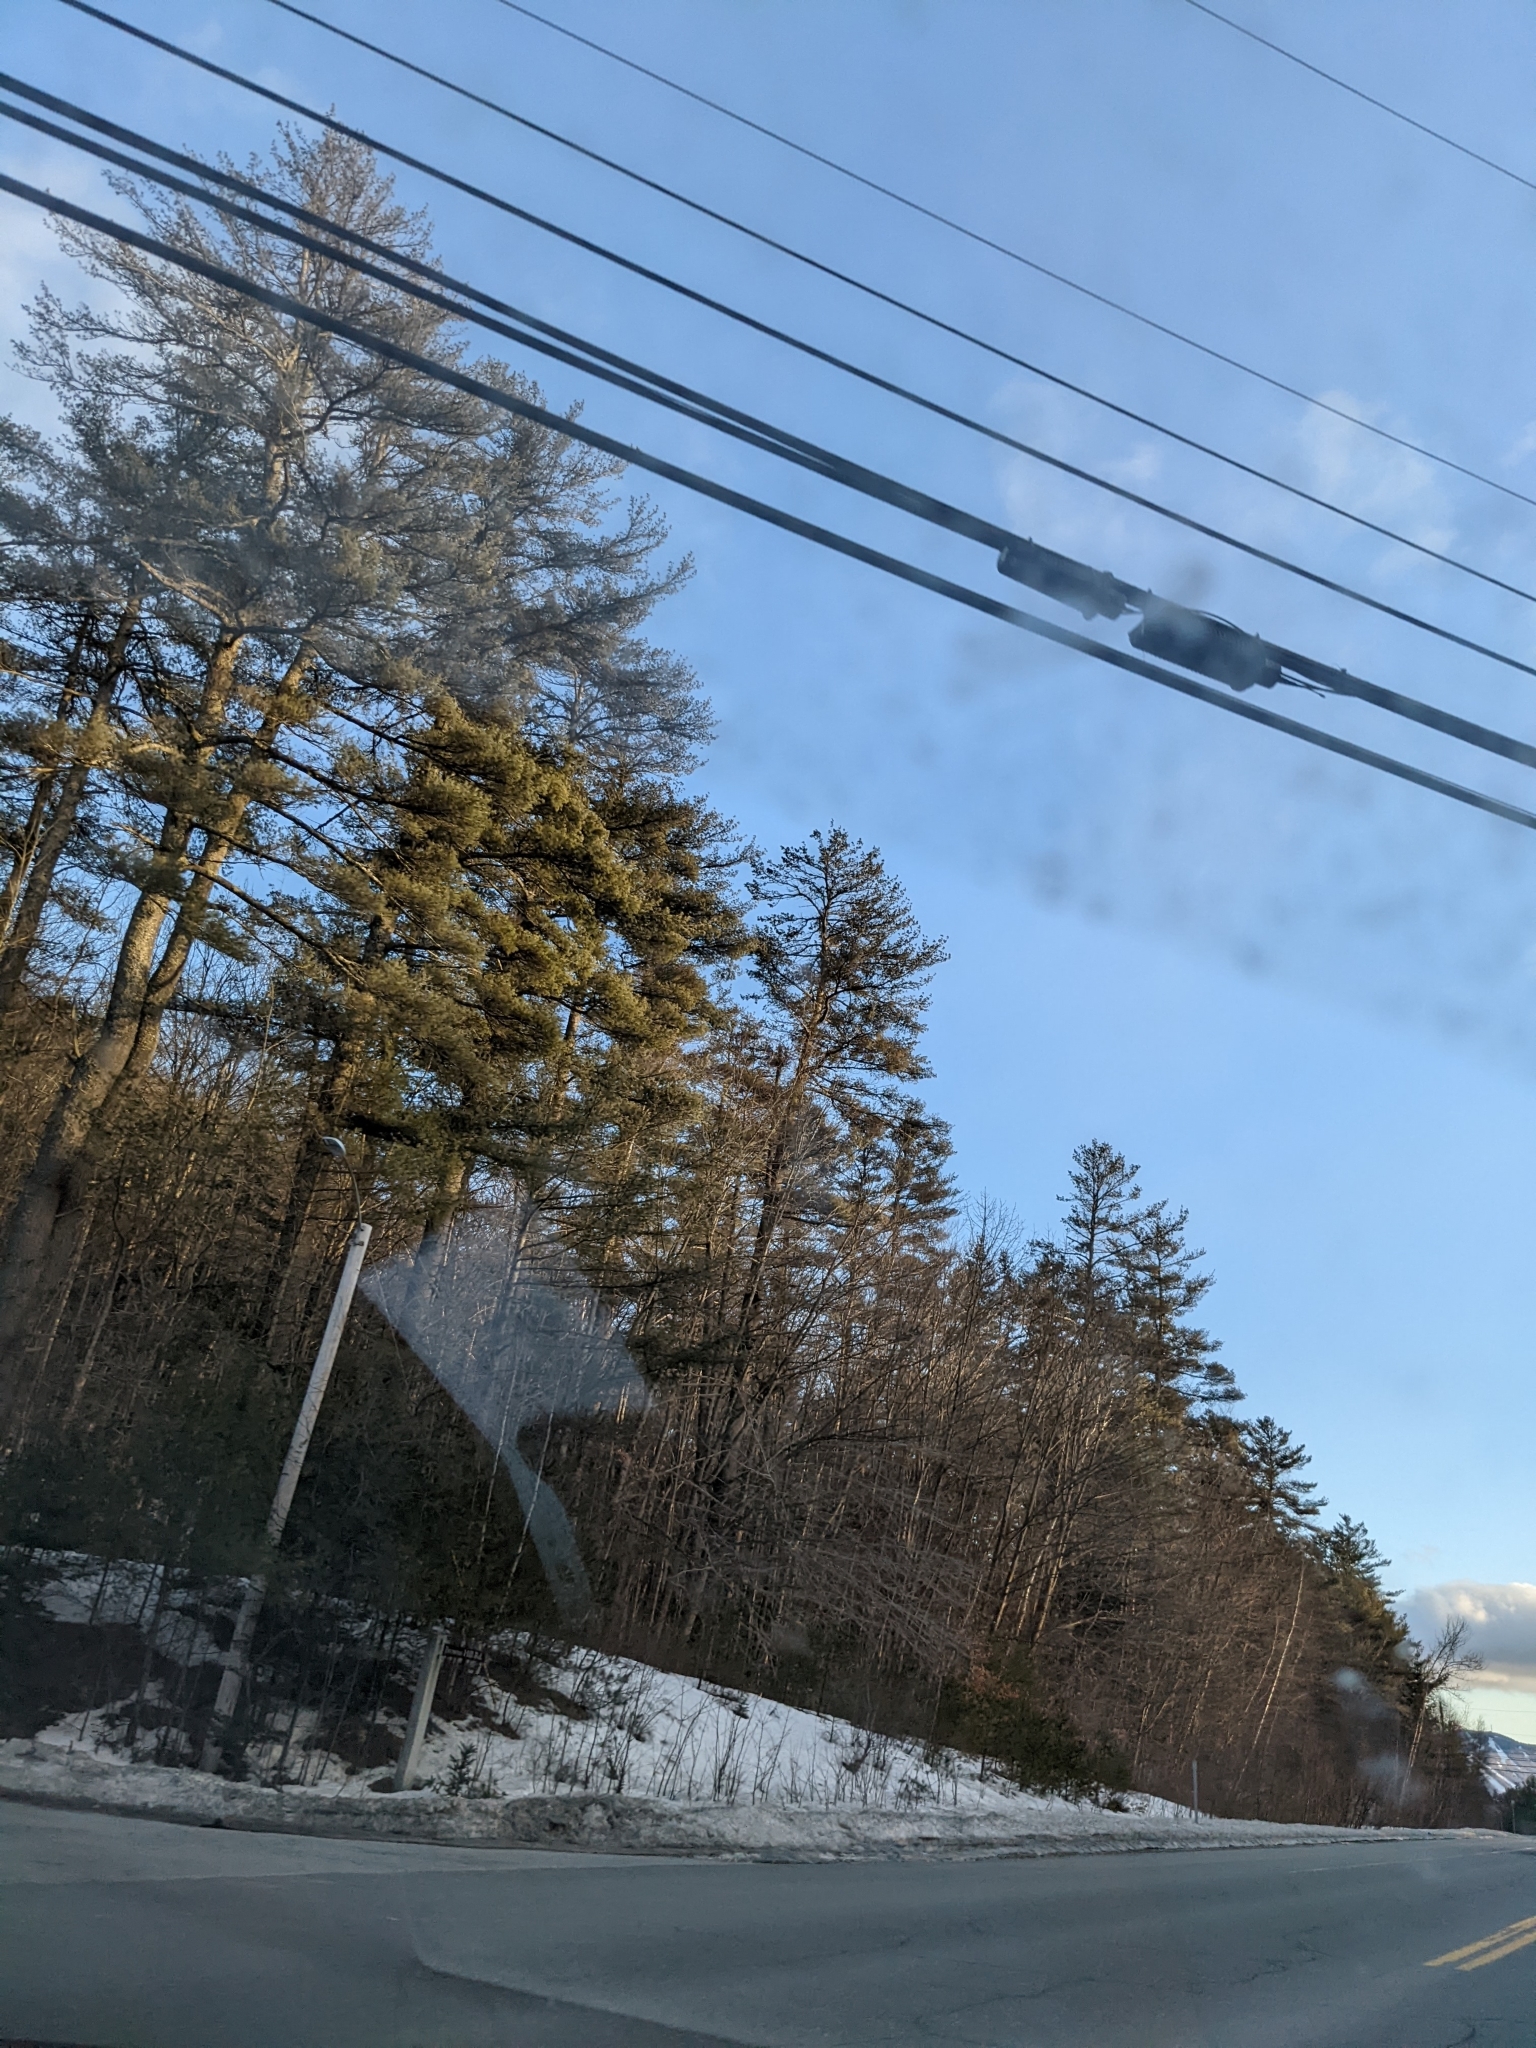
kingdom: Plantae
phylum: Tracheophyta
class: Pinopsida
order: Pinales
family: Pinaceae
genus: Pinus
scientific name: Pinus strobus
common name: Weymouth pine
